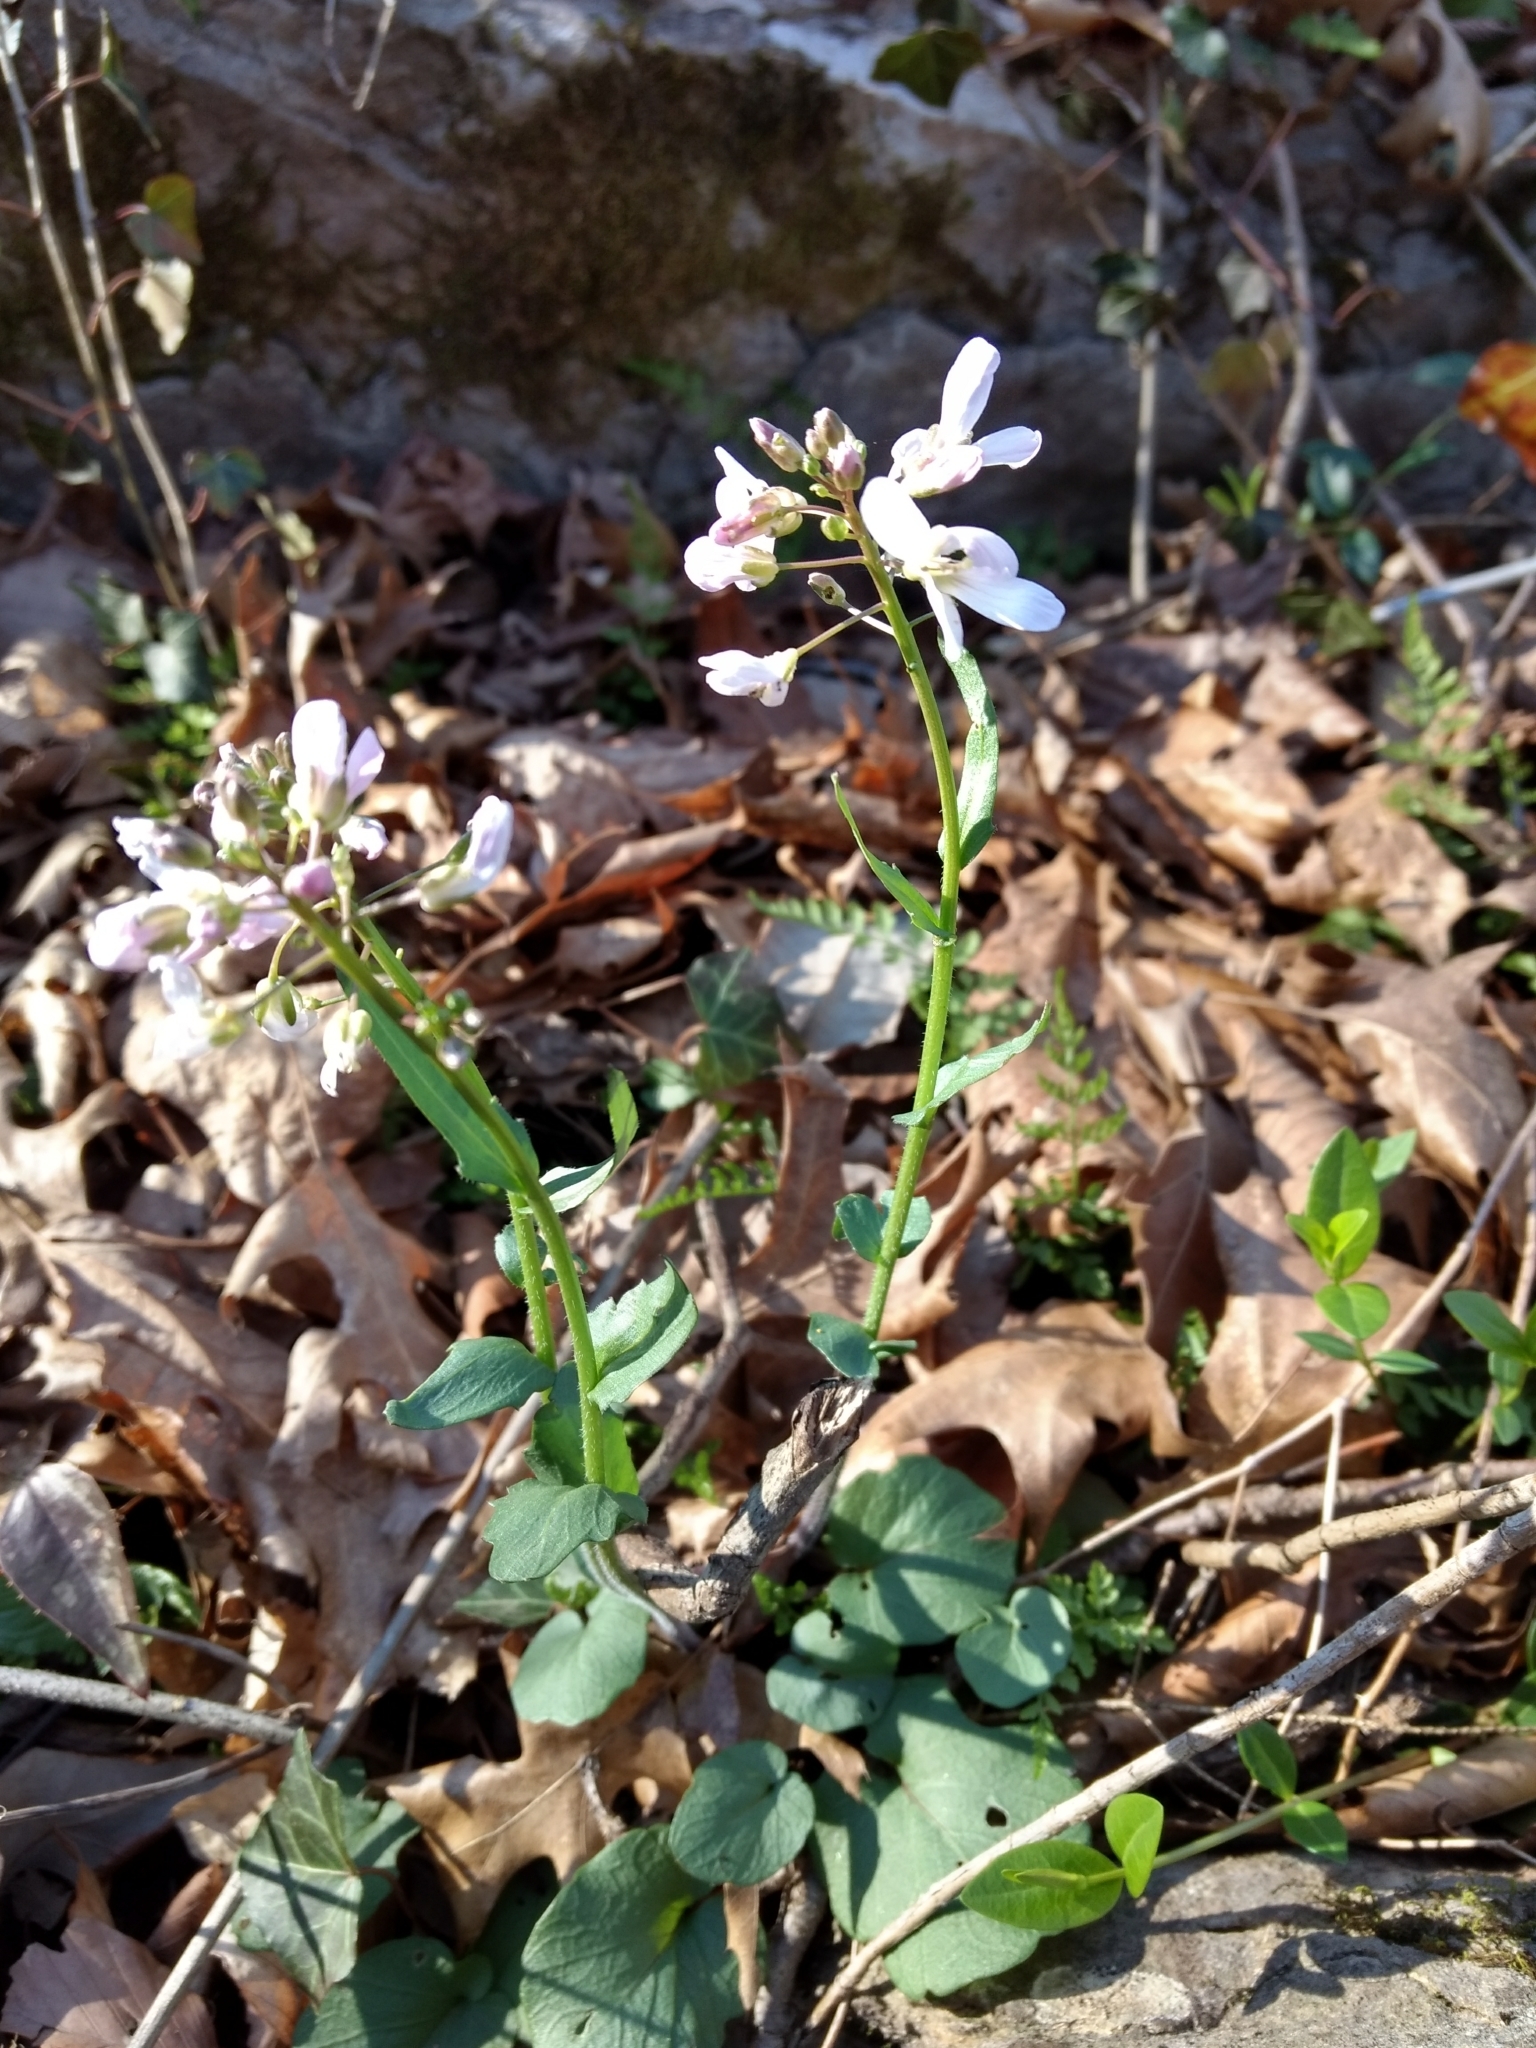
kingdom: Plantae
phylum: Tracheophyta
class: Magnoliopsida
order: Brassicales
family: Brassicaceae
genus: Cardamine
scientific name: Cardamine douglassii
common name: Purple cress
